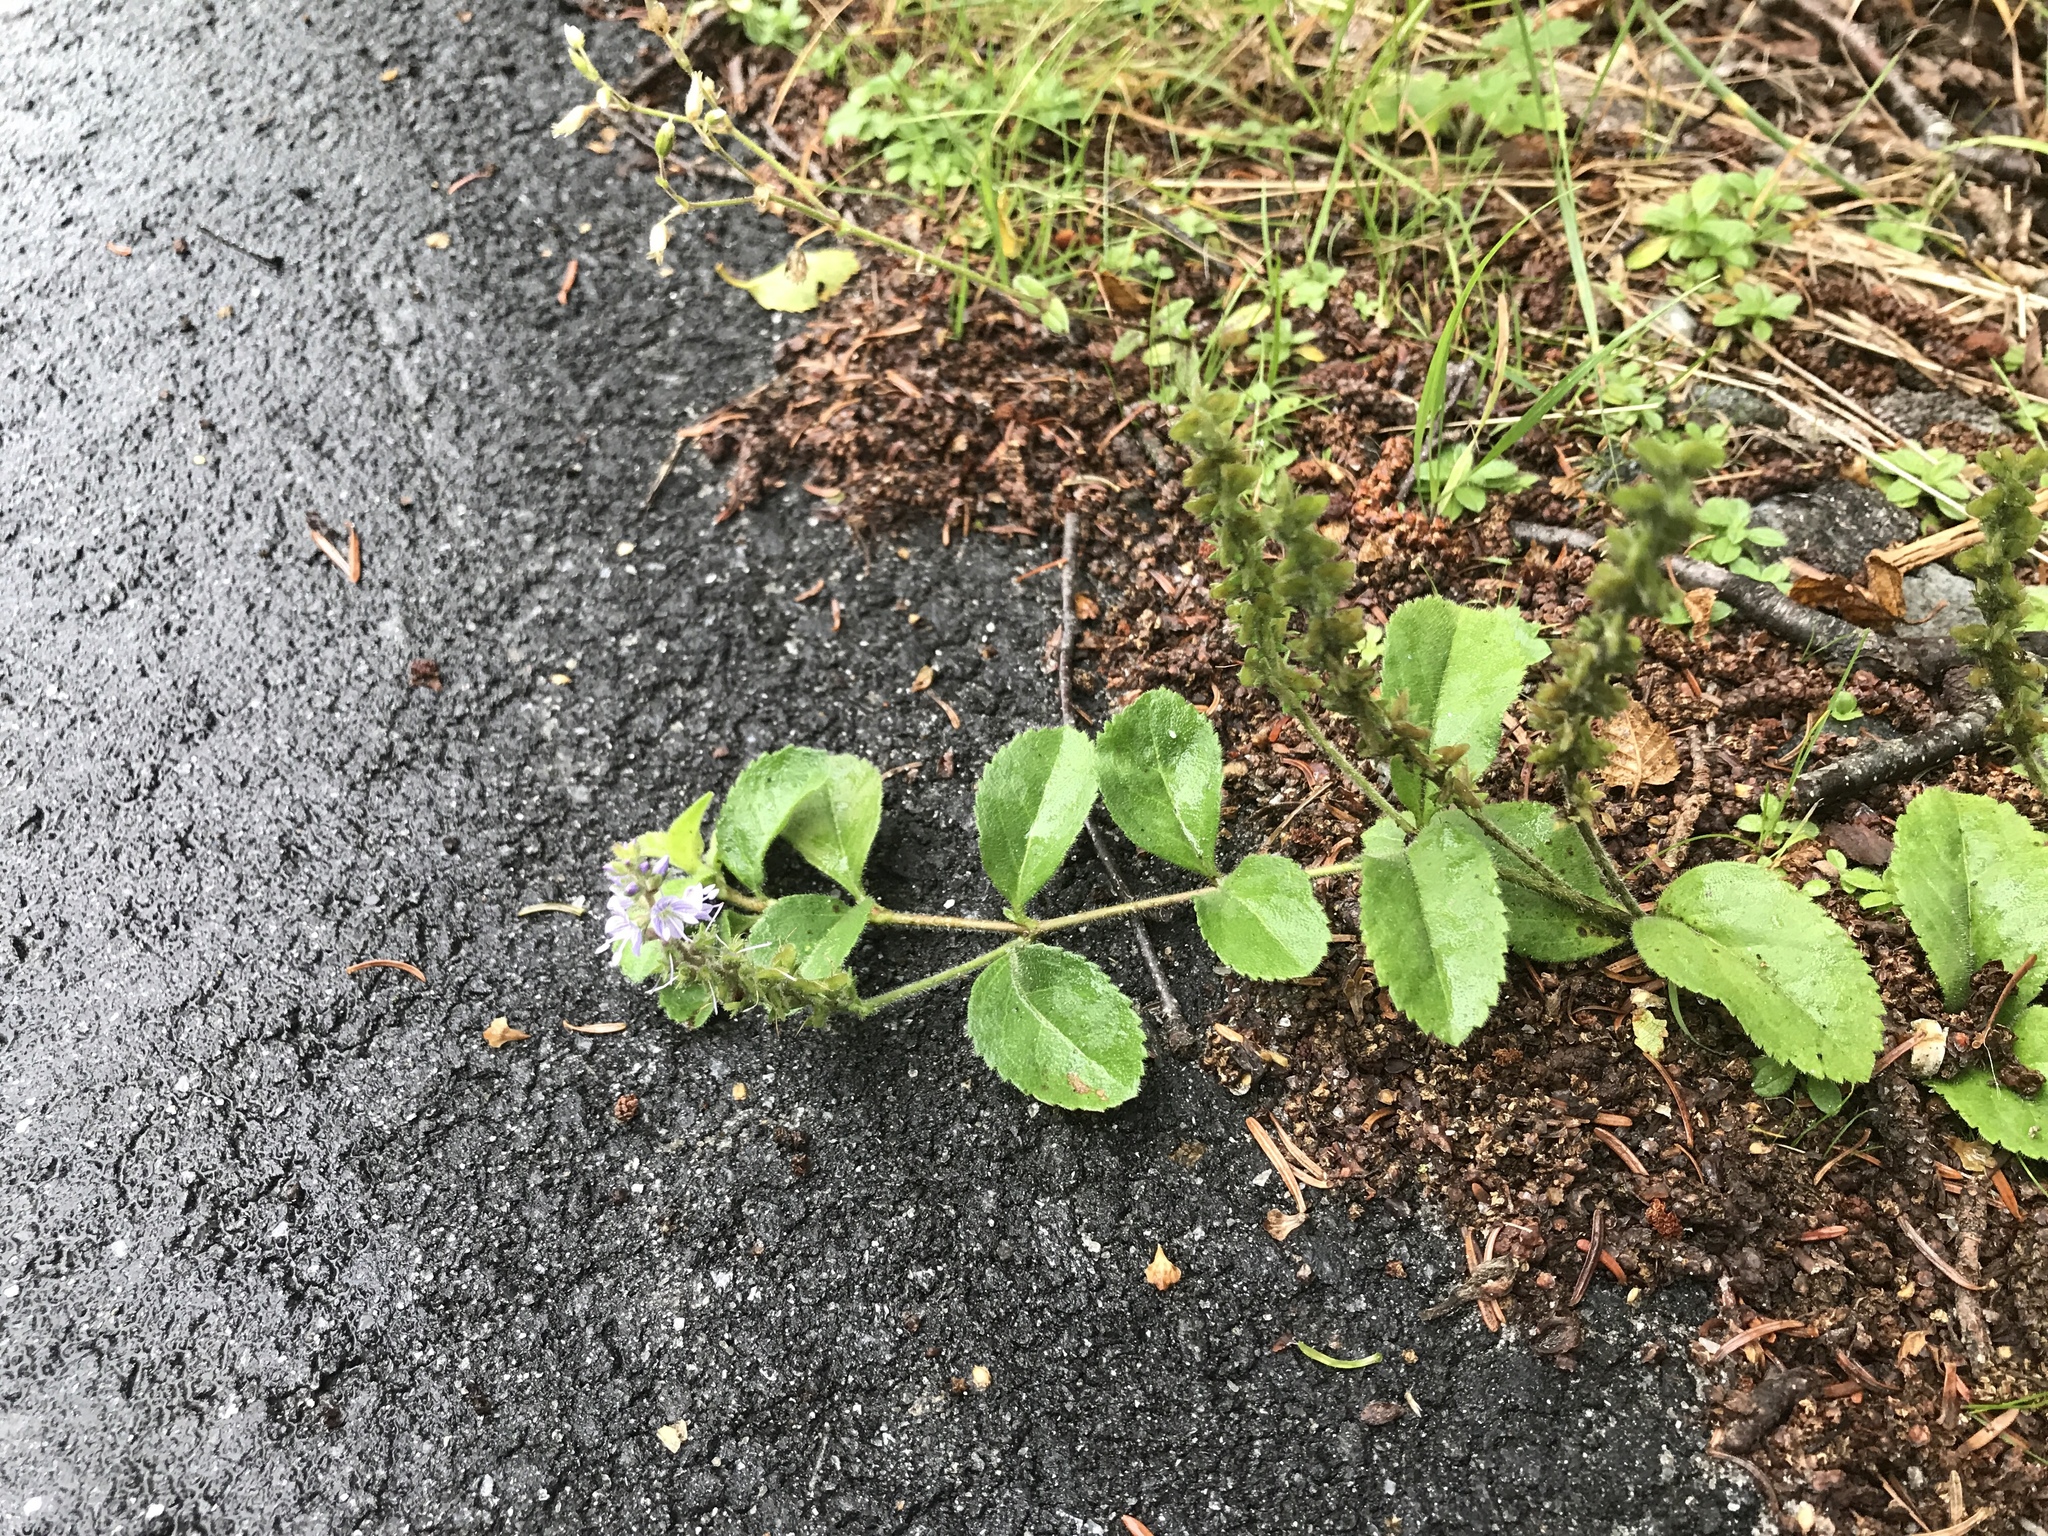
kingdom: Plantae
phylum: Tracheophyta
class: Magnoliopsida
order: Lamiales
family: Plantaginaceae
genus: Veronica
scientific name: Veronica officinalis
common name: Common speedwell
